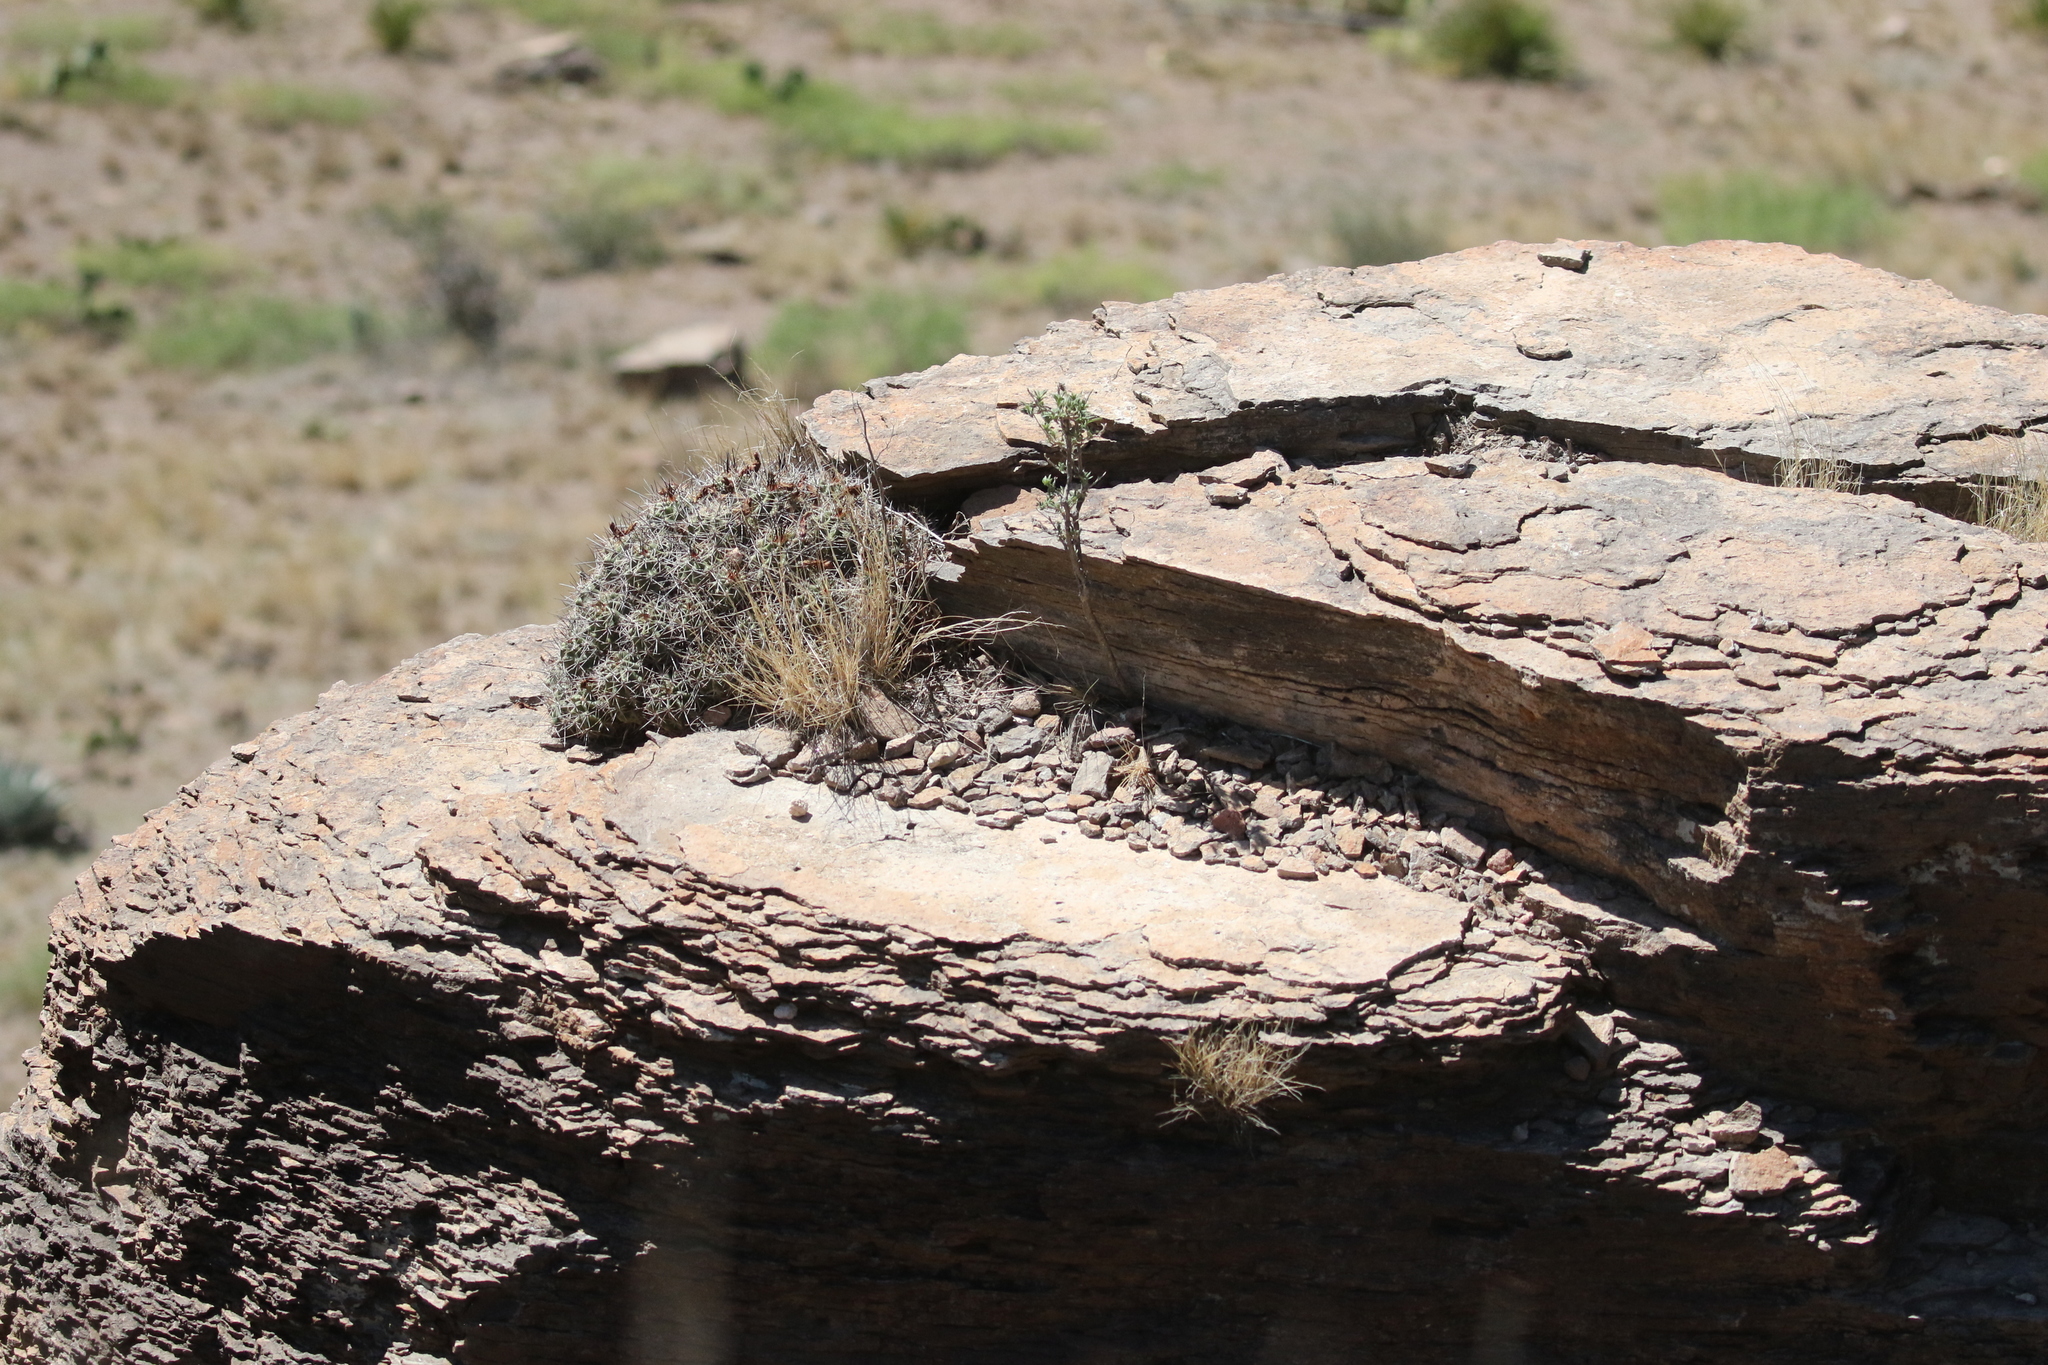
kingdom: Plantae
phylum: Tracheophyta
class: Magnoliopsida
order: Caryophyllales
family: Cactaceae
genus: Echinocereus
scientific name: Echinocereus coccineus
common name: Scarlet hedgehog cactus
